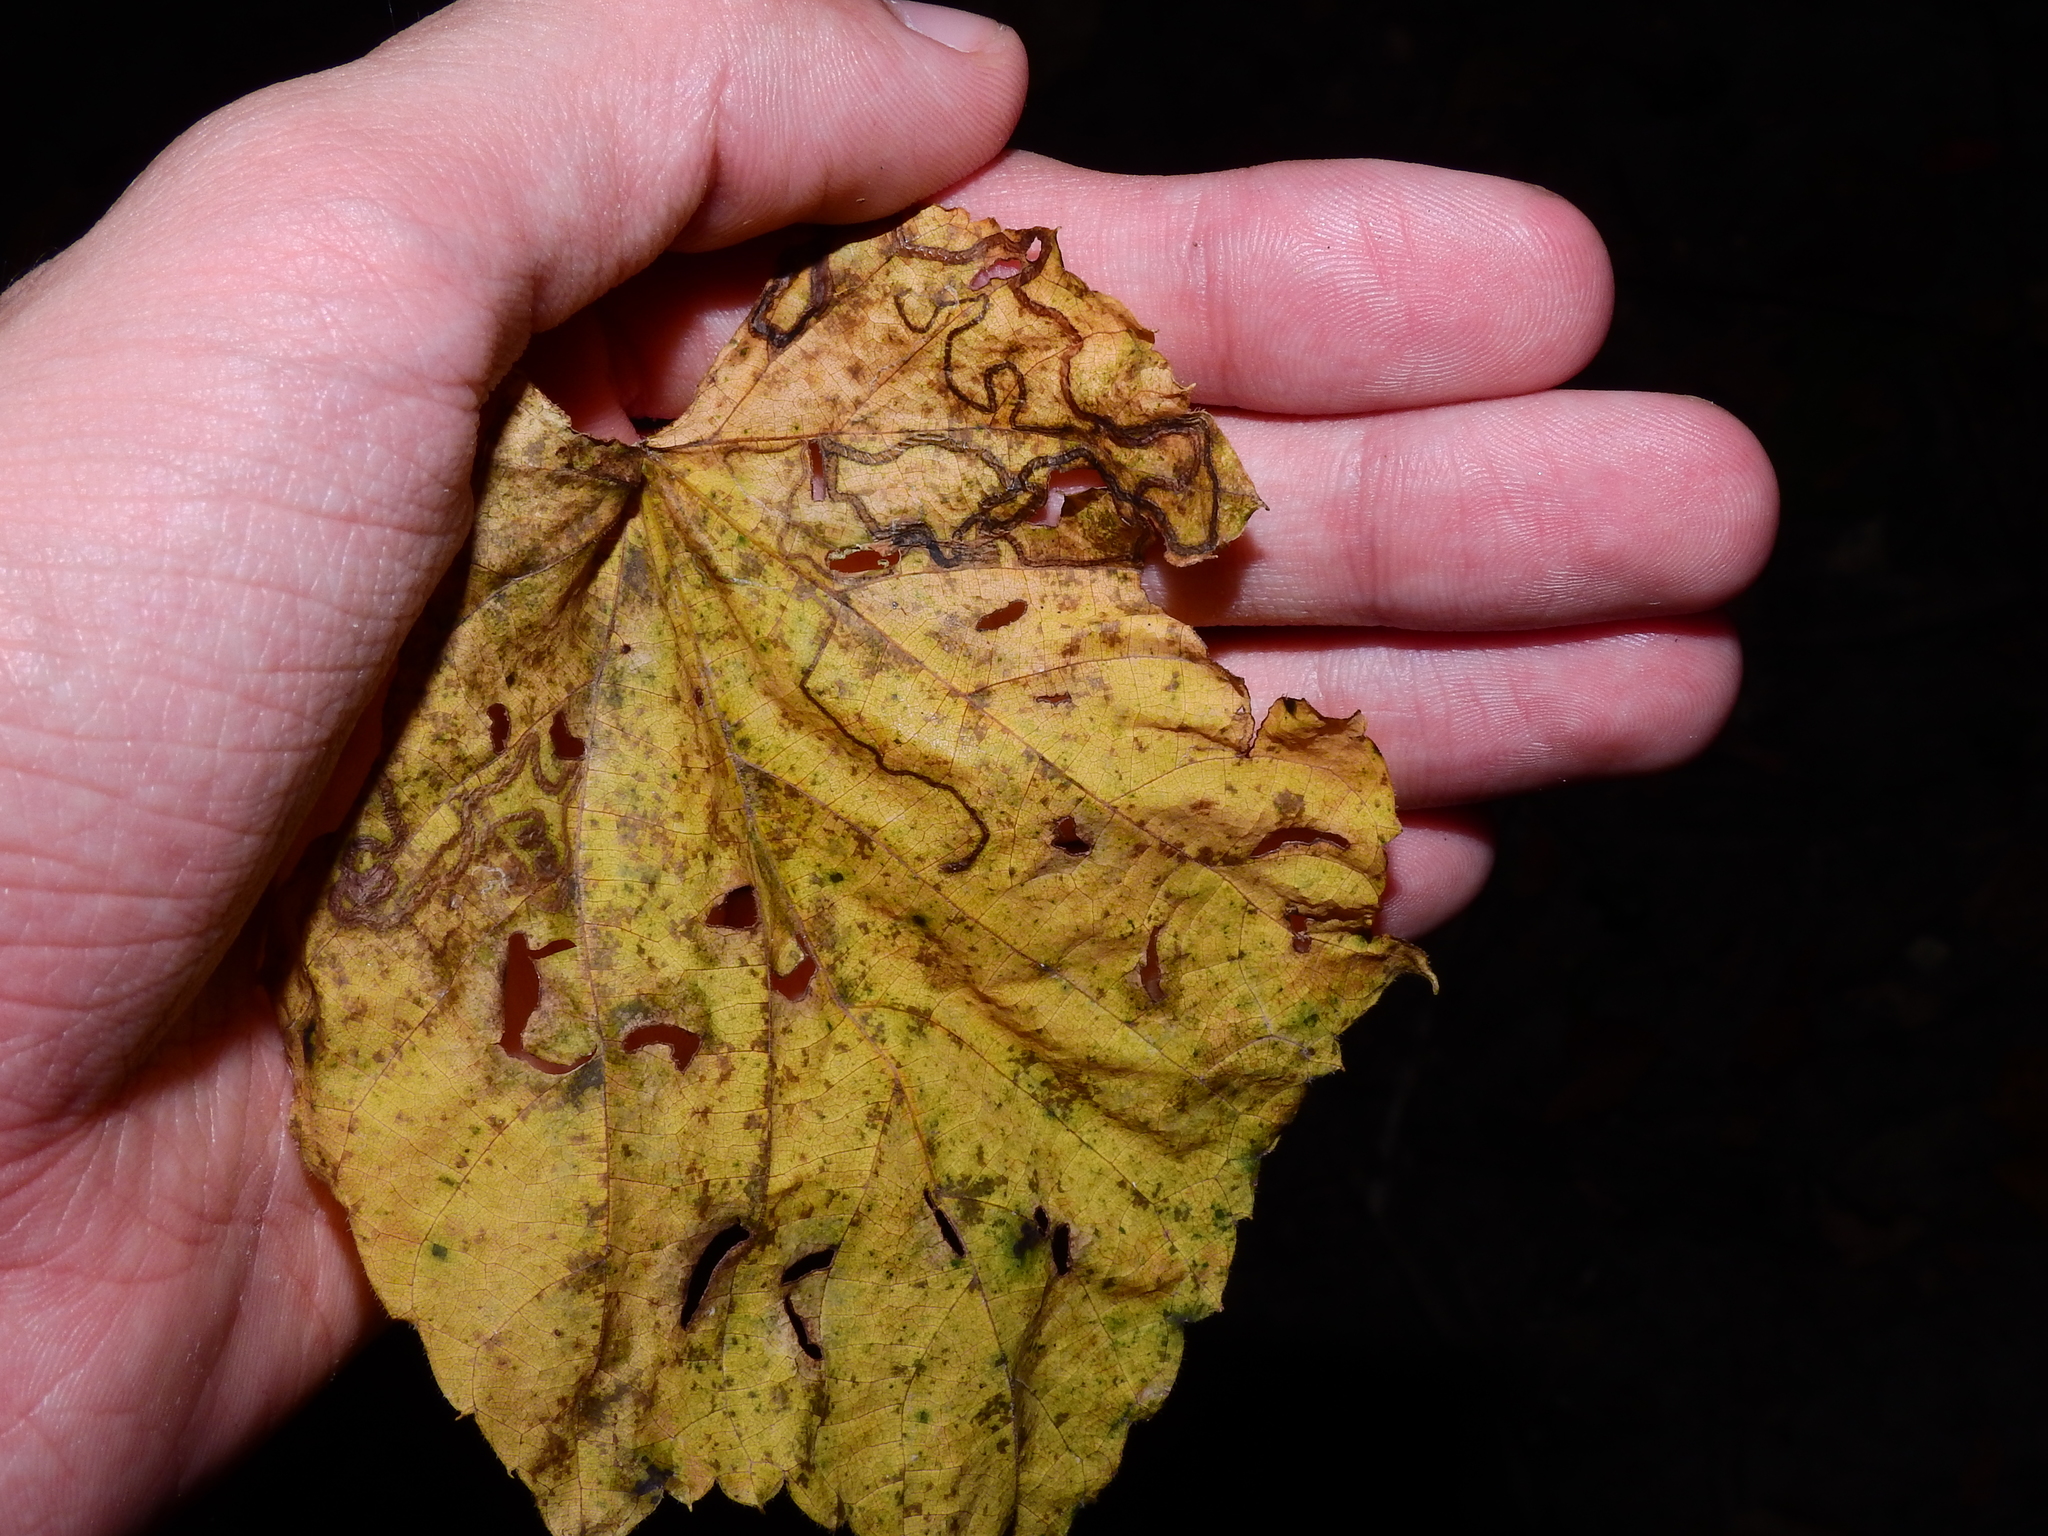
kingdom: Animalia
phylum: Arthropoda
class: Insecta
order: Lepidoptera
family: Gracillariidae
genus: Phyllocnistis
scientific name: Phyllocnistis vitifoliella
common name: Grape leaf-miner moth
